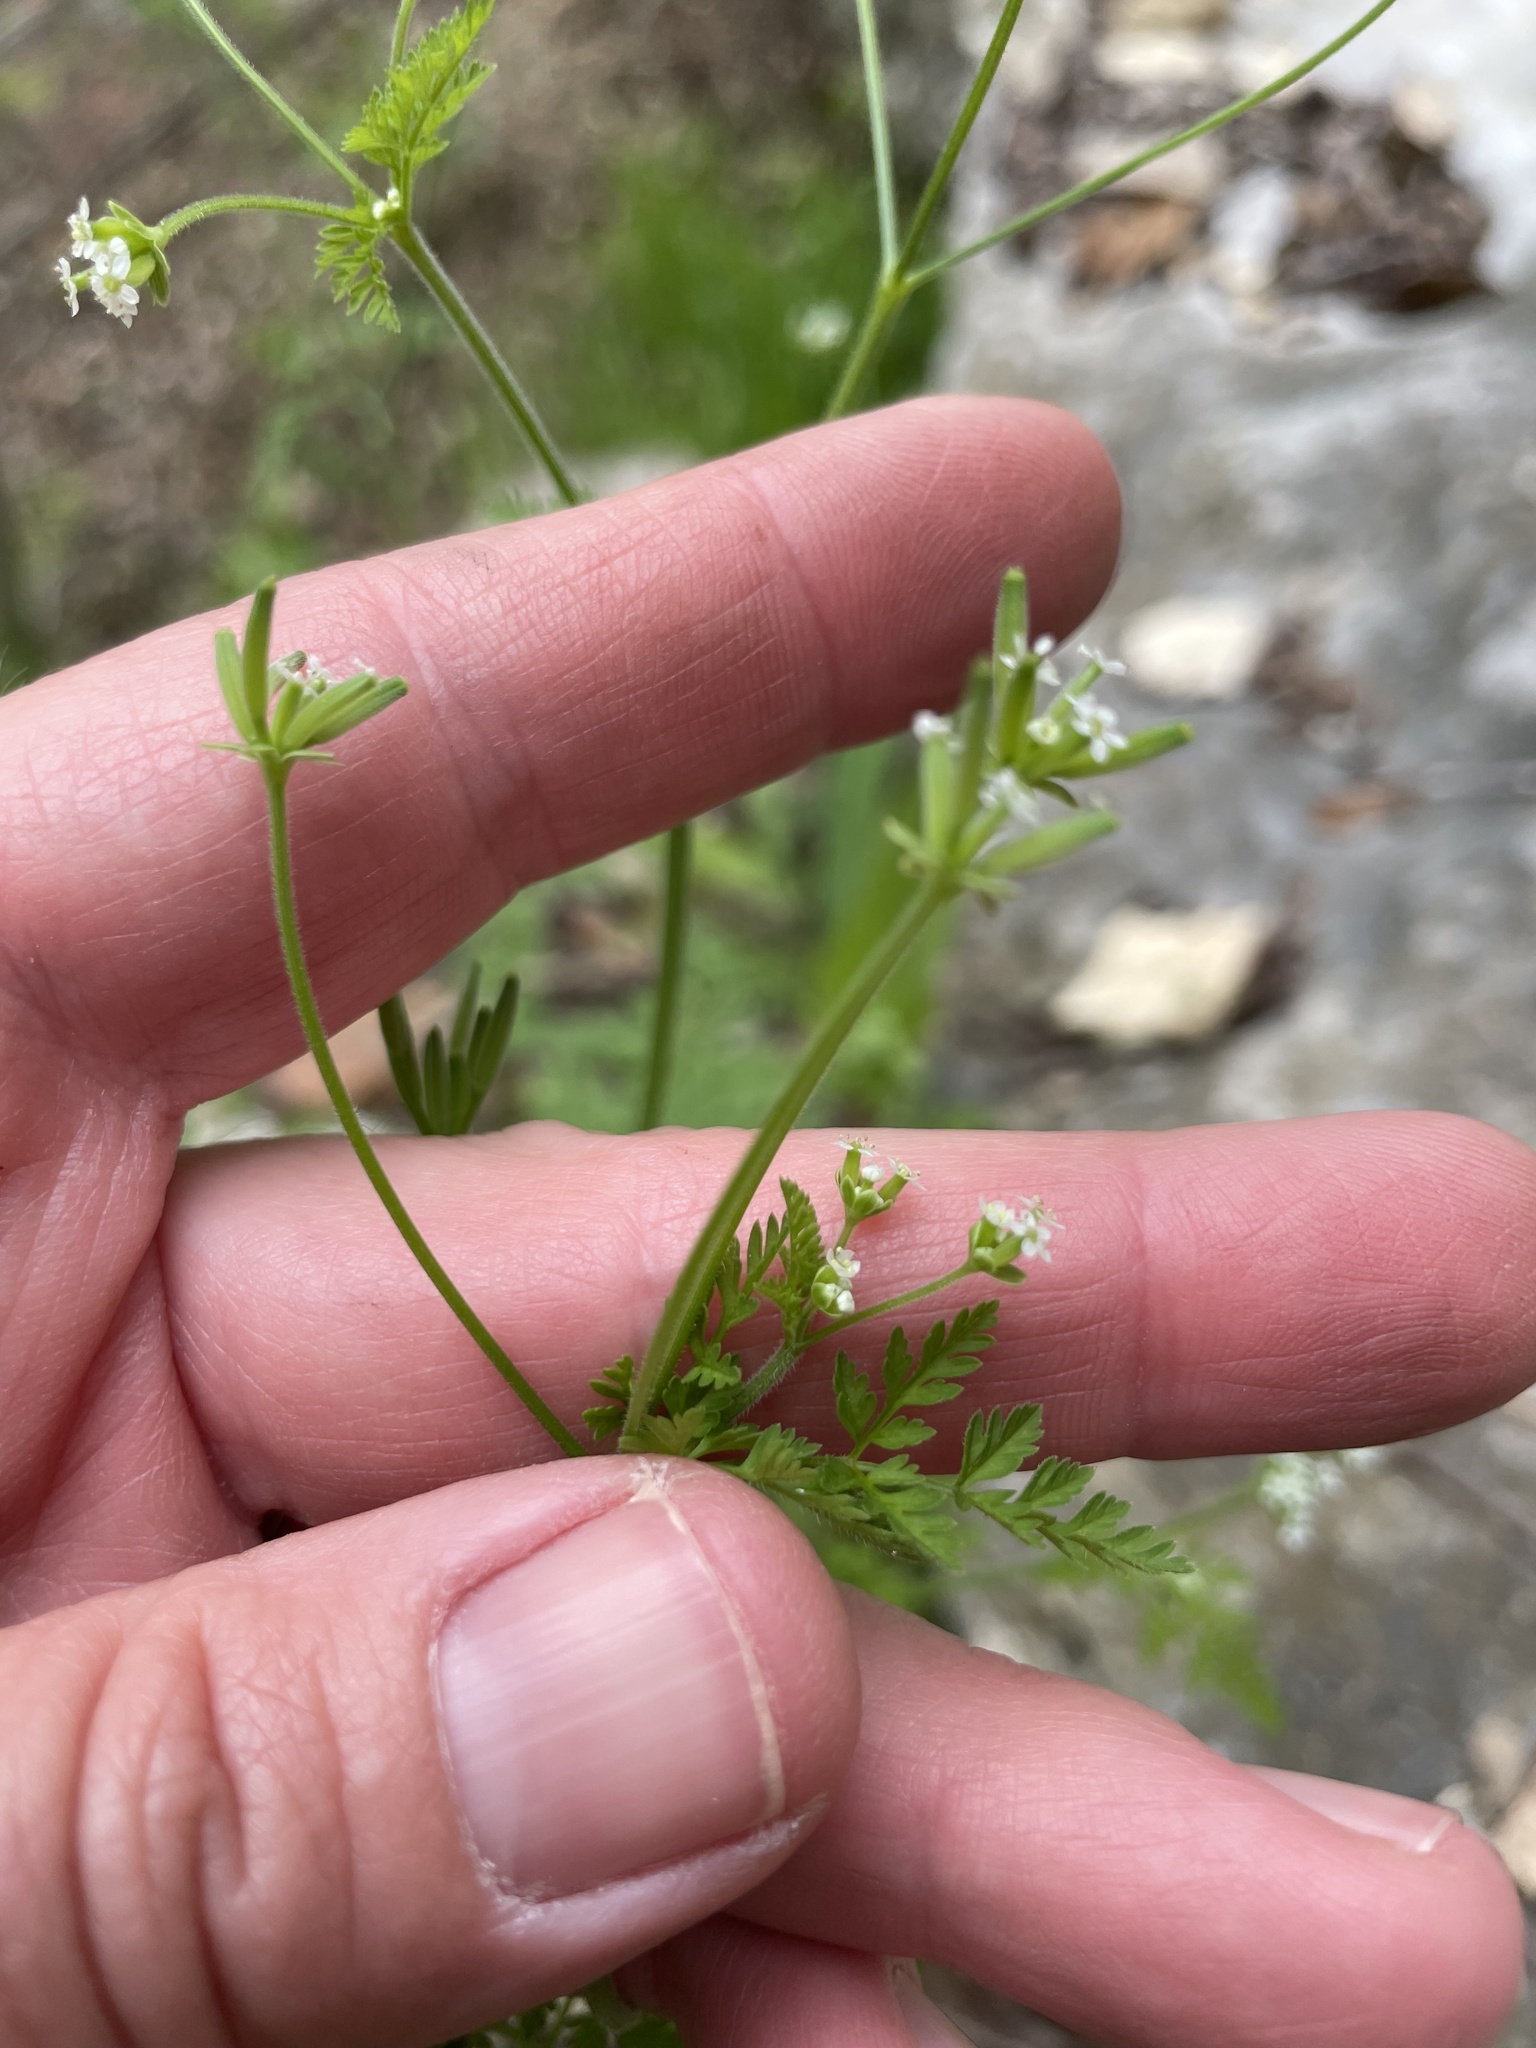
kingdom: Plantae
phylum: Tracheophyta
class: Magnoliopsida
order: Apiales
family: Apiaceae
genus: Chaerophyllum
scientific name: Chaerophyllum tainturieri
